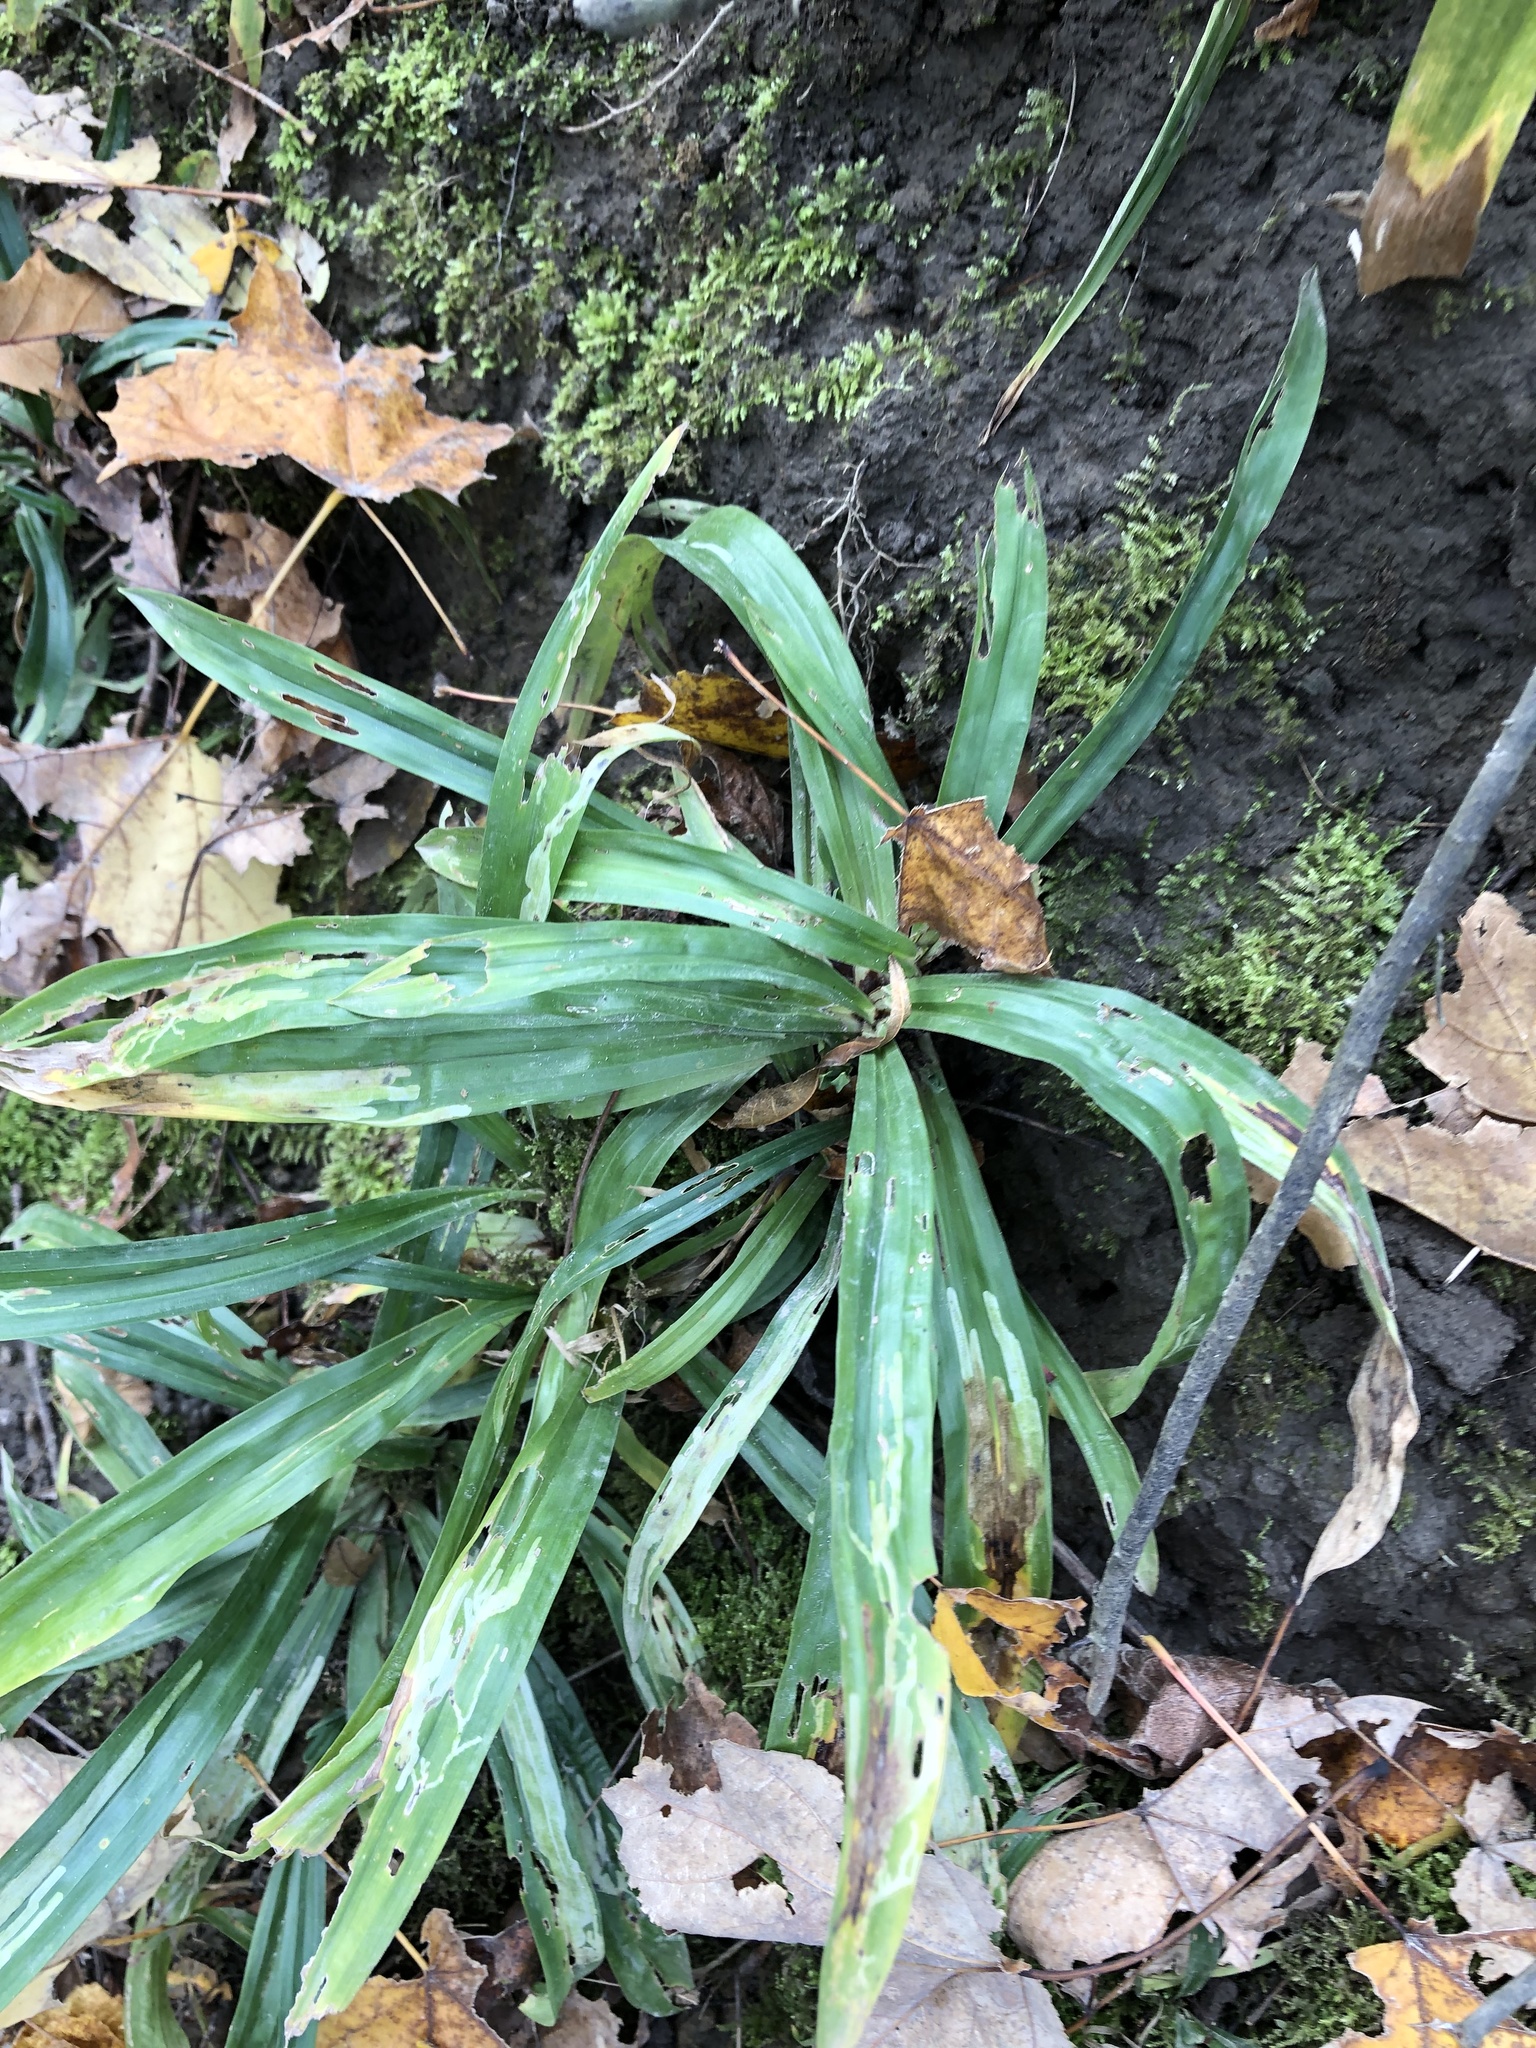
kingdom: Plantae
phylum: Tracheophyta
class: Liliopsida
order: Poales
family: Cyperaceae
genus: Carex
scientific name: Carex albursina
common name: Blunt-scale wood sedge
